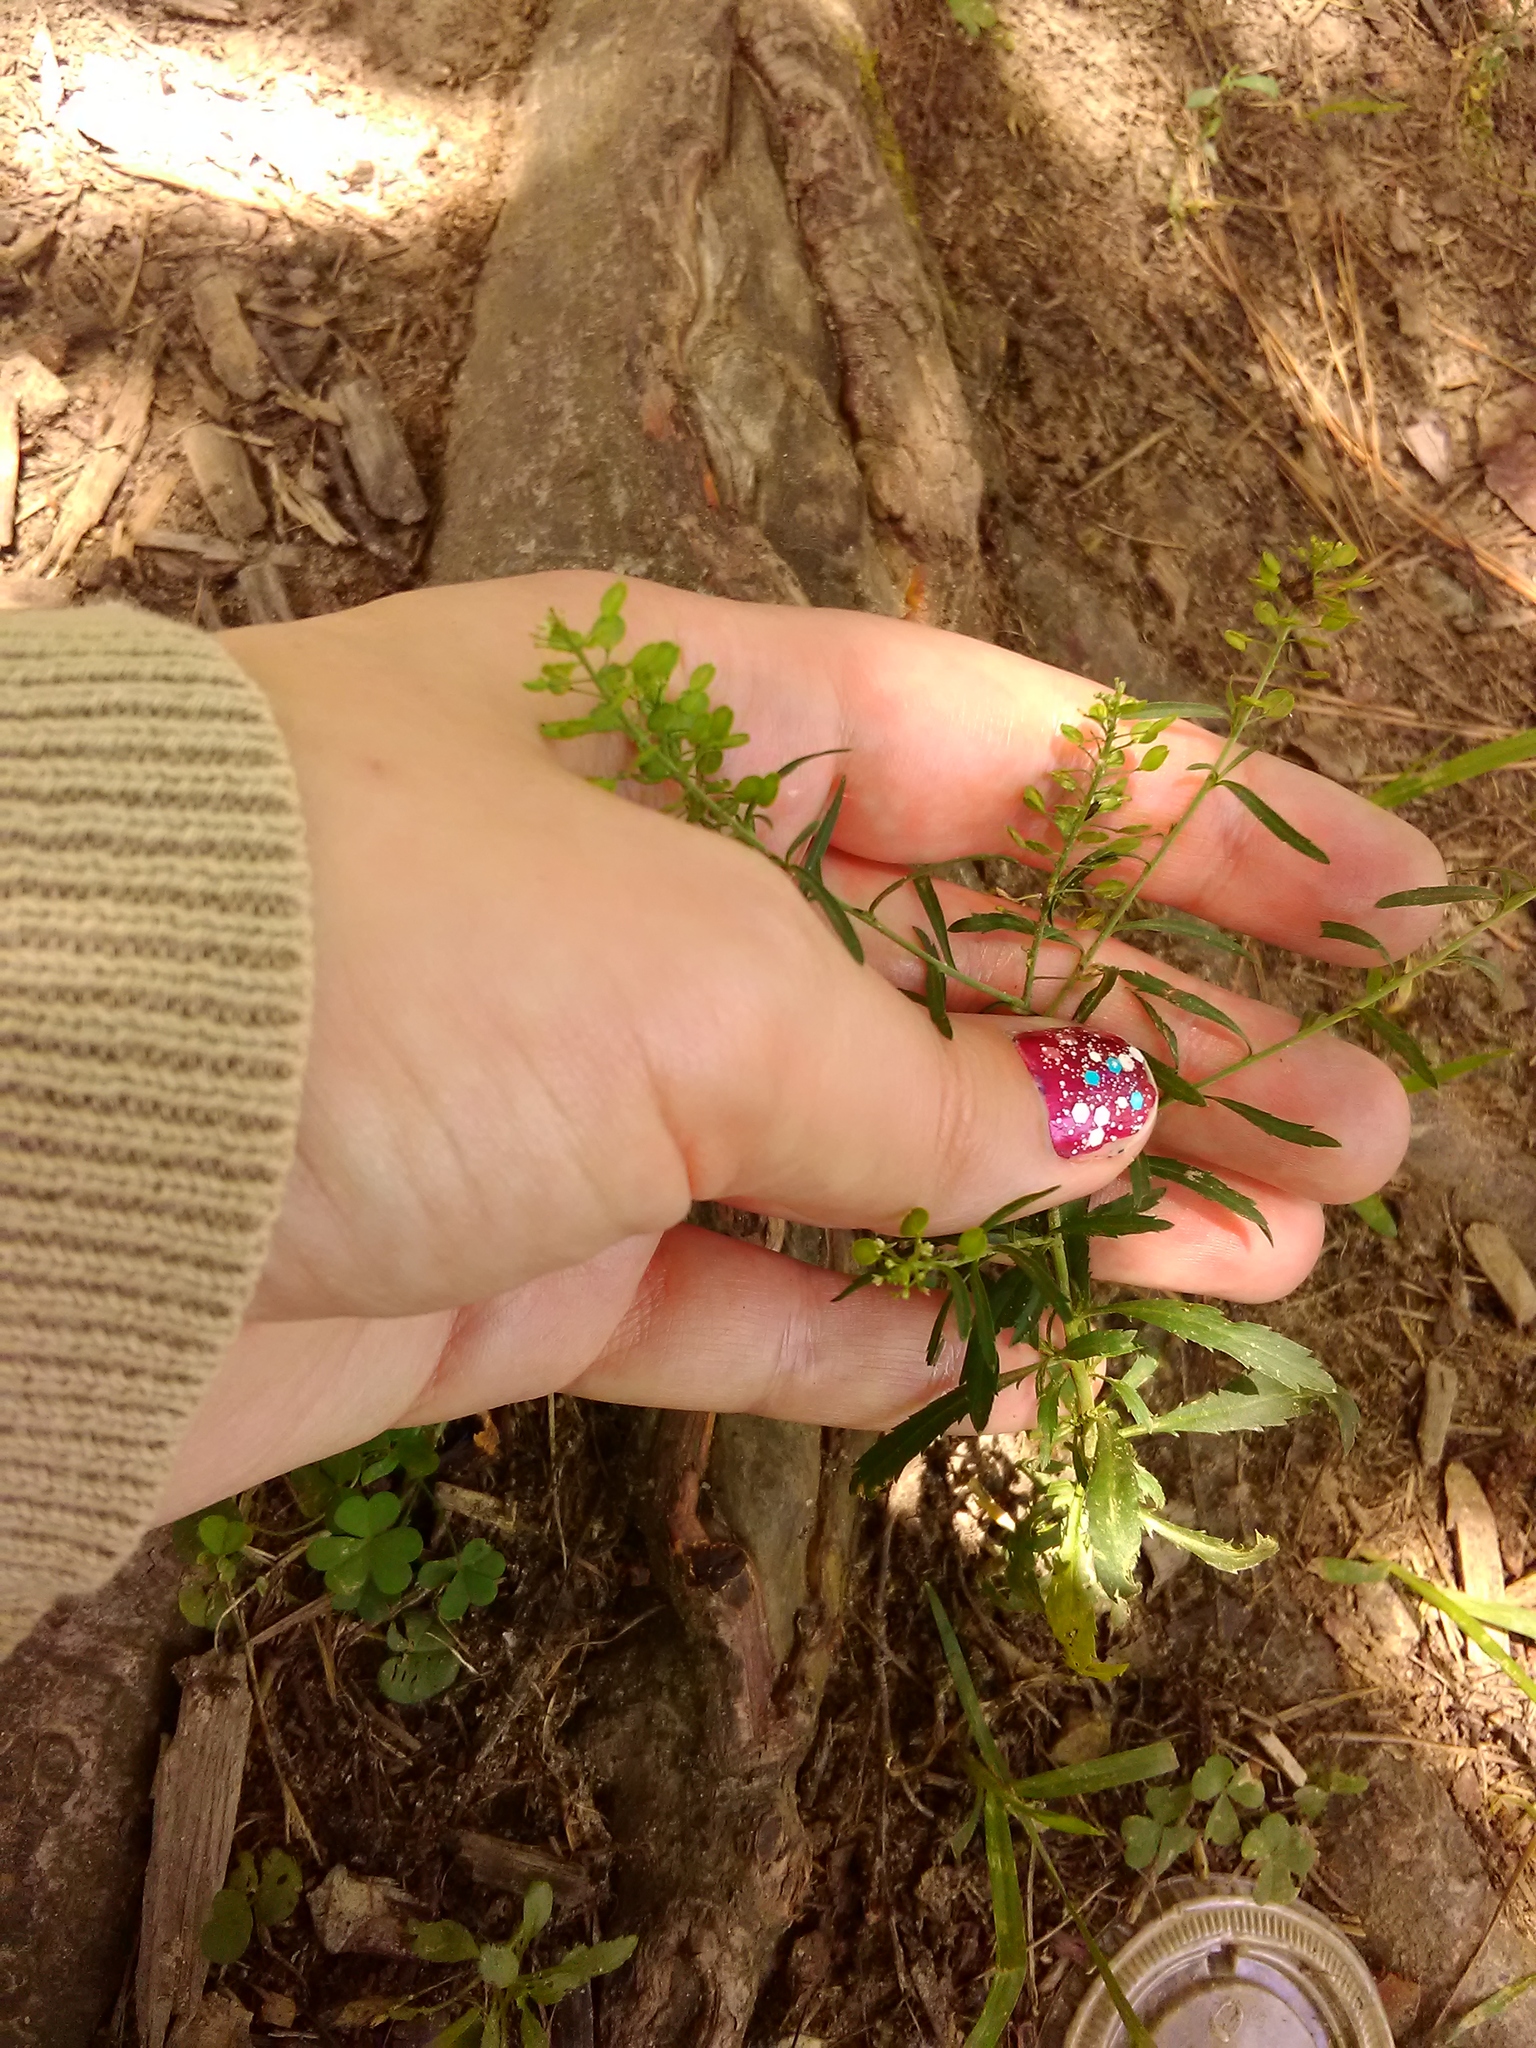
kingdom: Plantae
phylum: Tracheophyta
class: Magnoliopsida
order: Brassicales
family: Brassicaceae
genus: Lepidium
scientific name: Lepidium virginicum
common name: Least pepperwort
